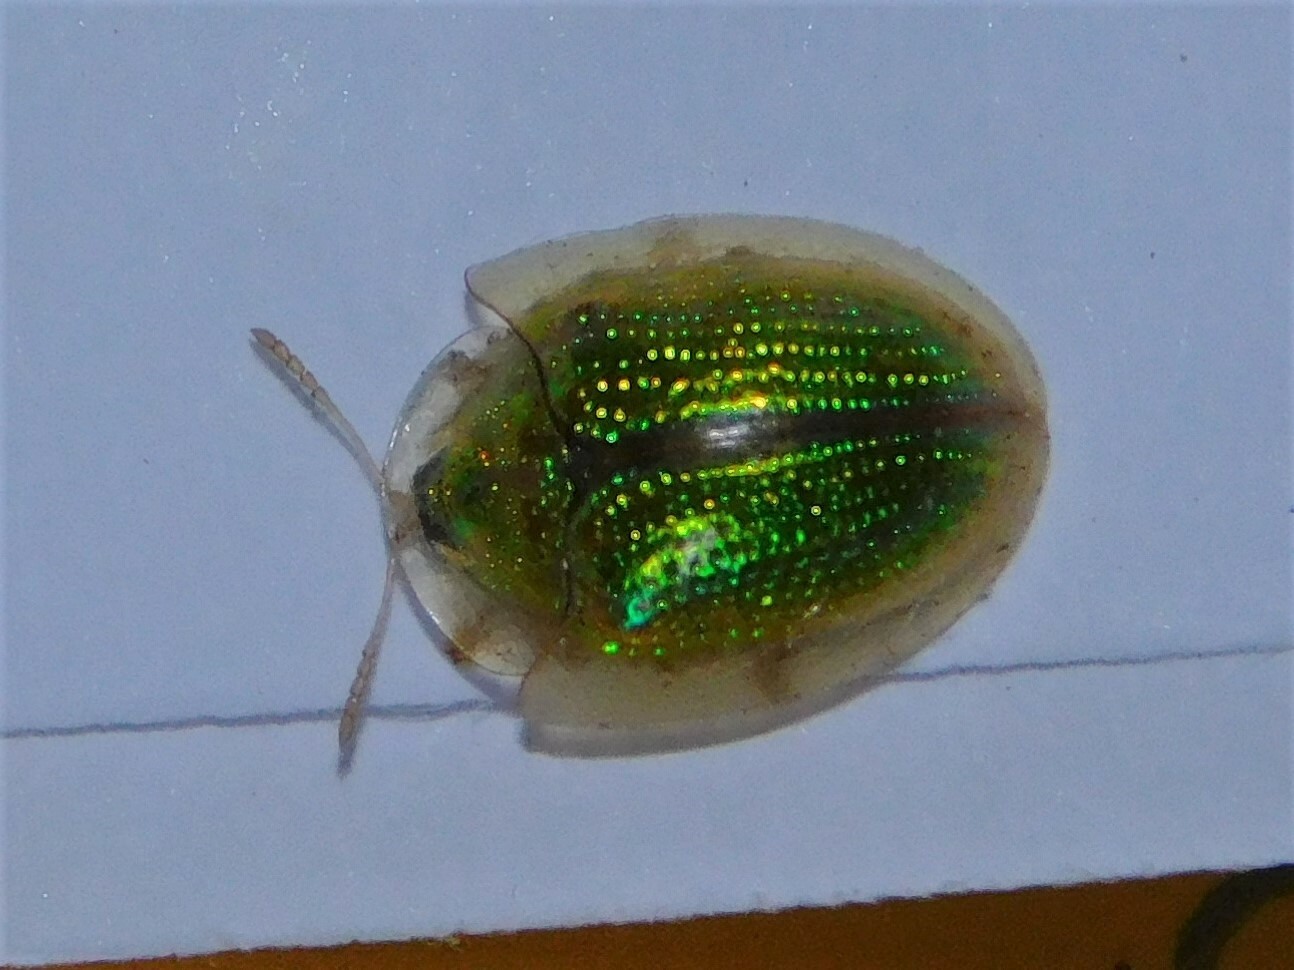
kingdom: Animalia
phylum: Arthropoda
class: Insecta
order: Coleoptera
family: Chrysomelidae
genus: Chiridopsis
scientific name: Chiridopsis observabilis
